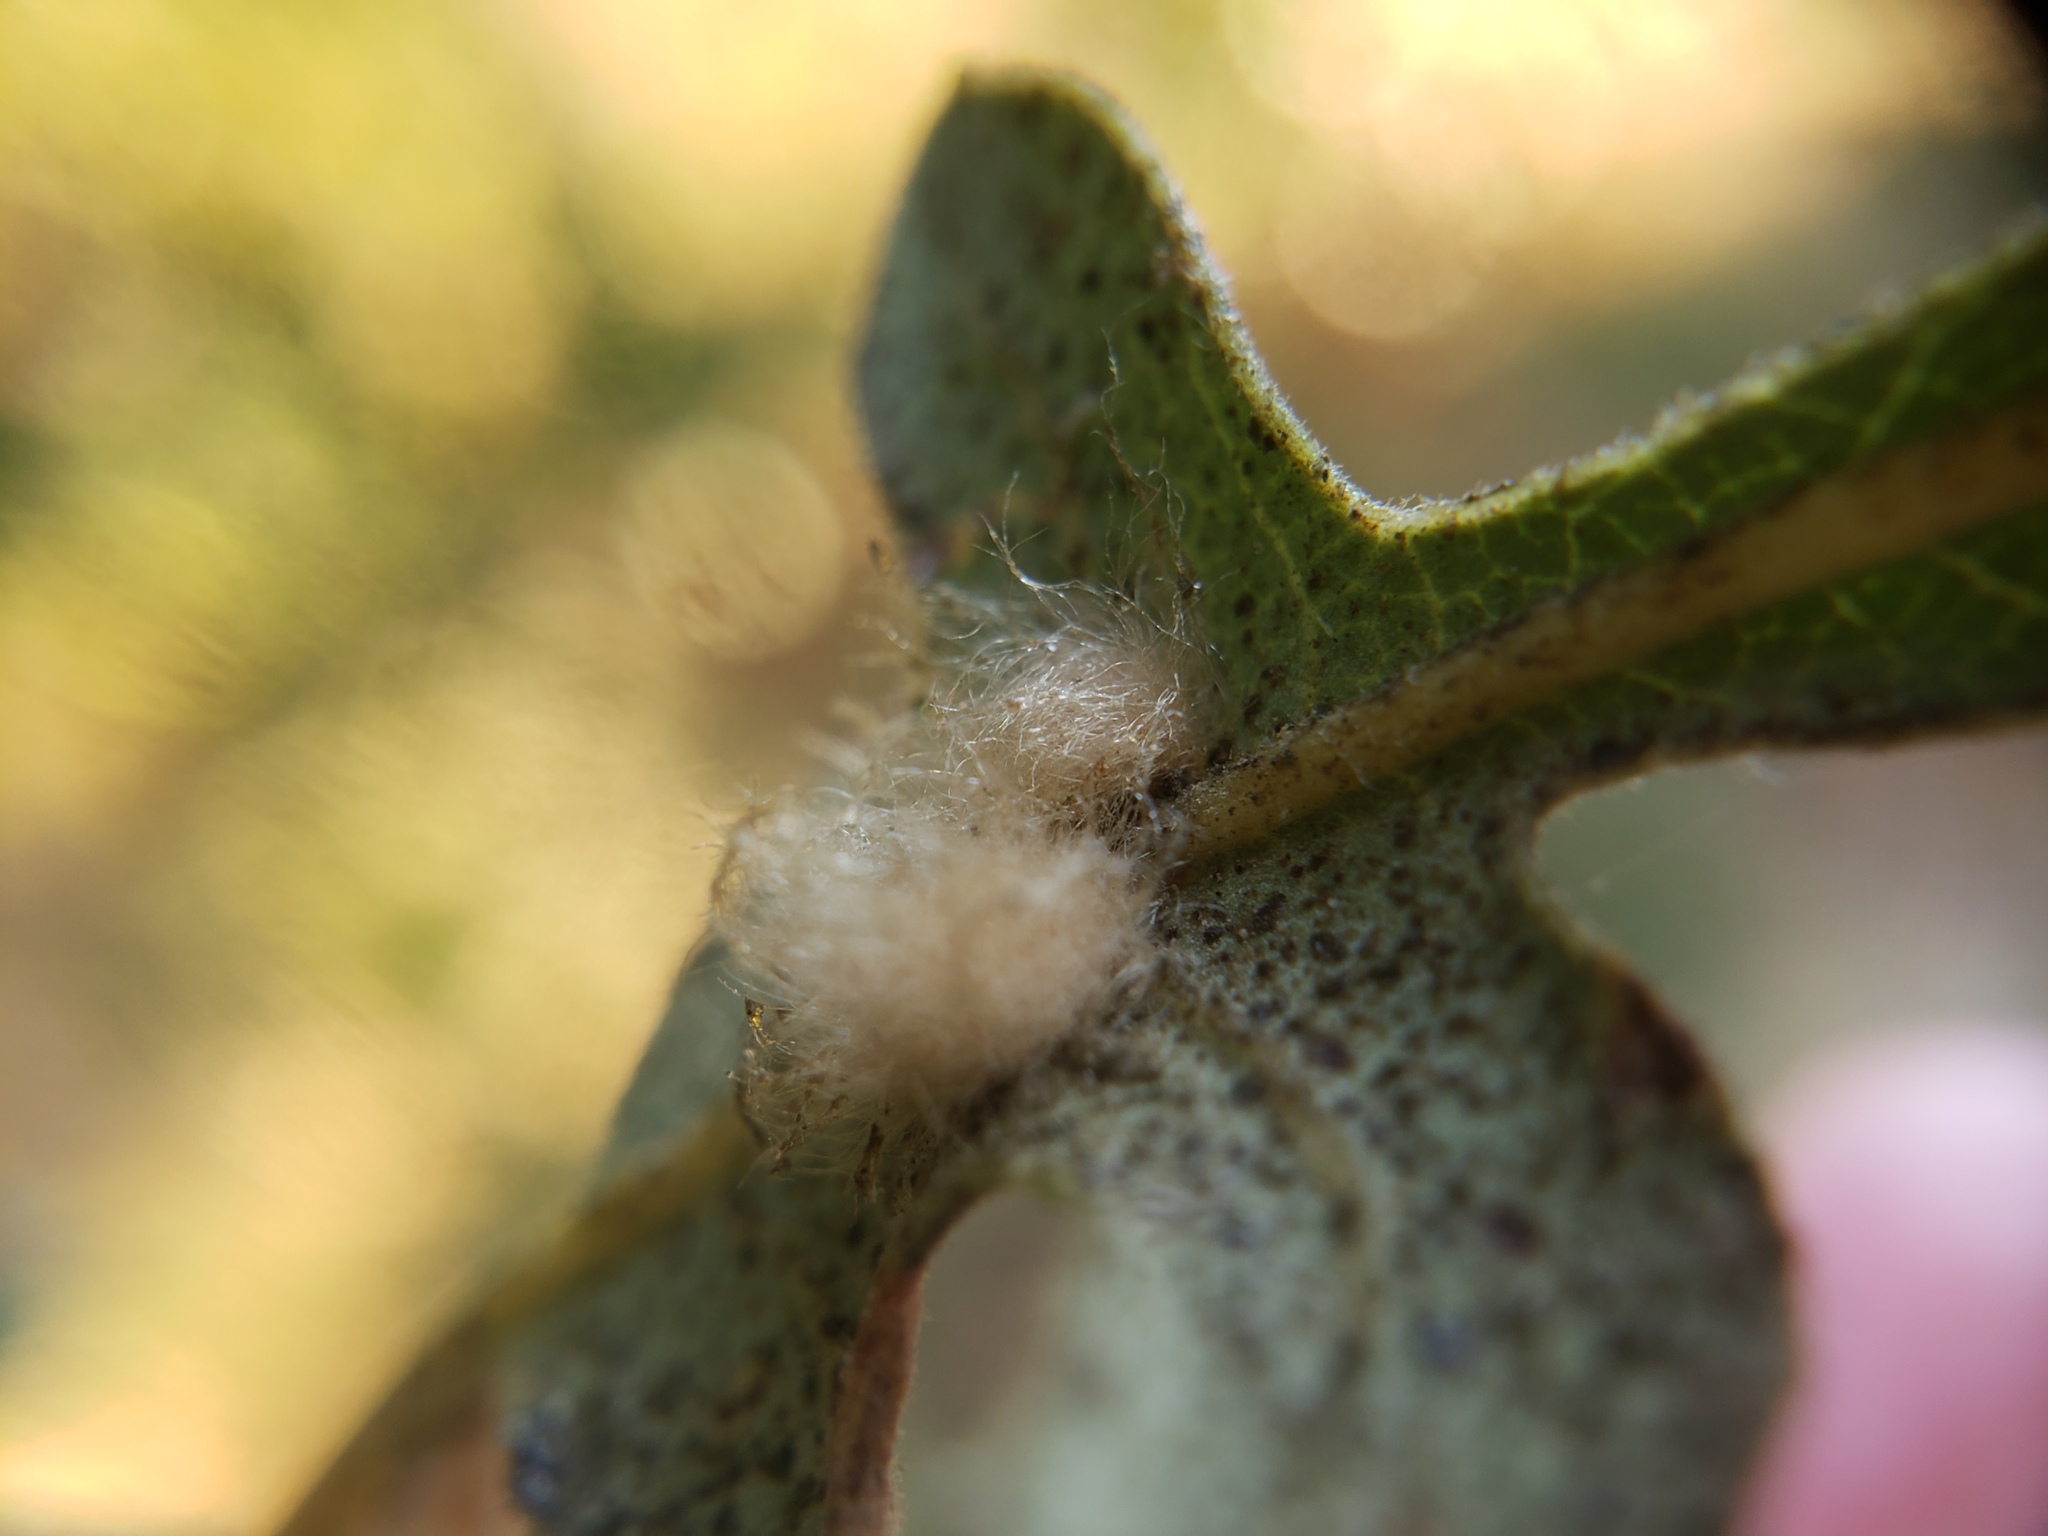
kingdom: Animalia
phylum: Arthropoda
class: Insecta
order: Hymenoptera
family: Cynipidae
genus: Andricus
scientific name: Andricus Druon fullawayi
